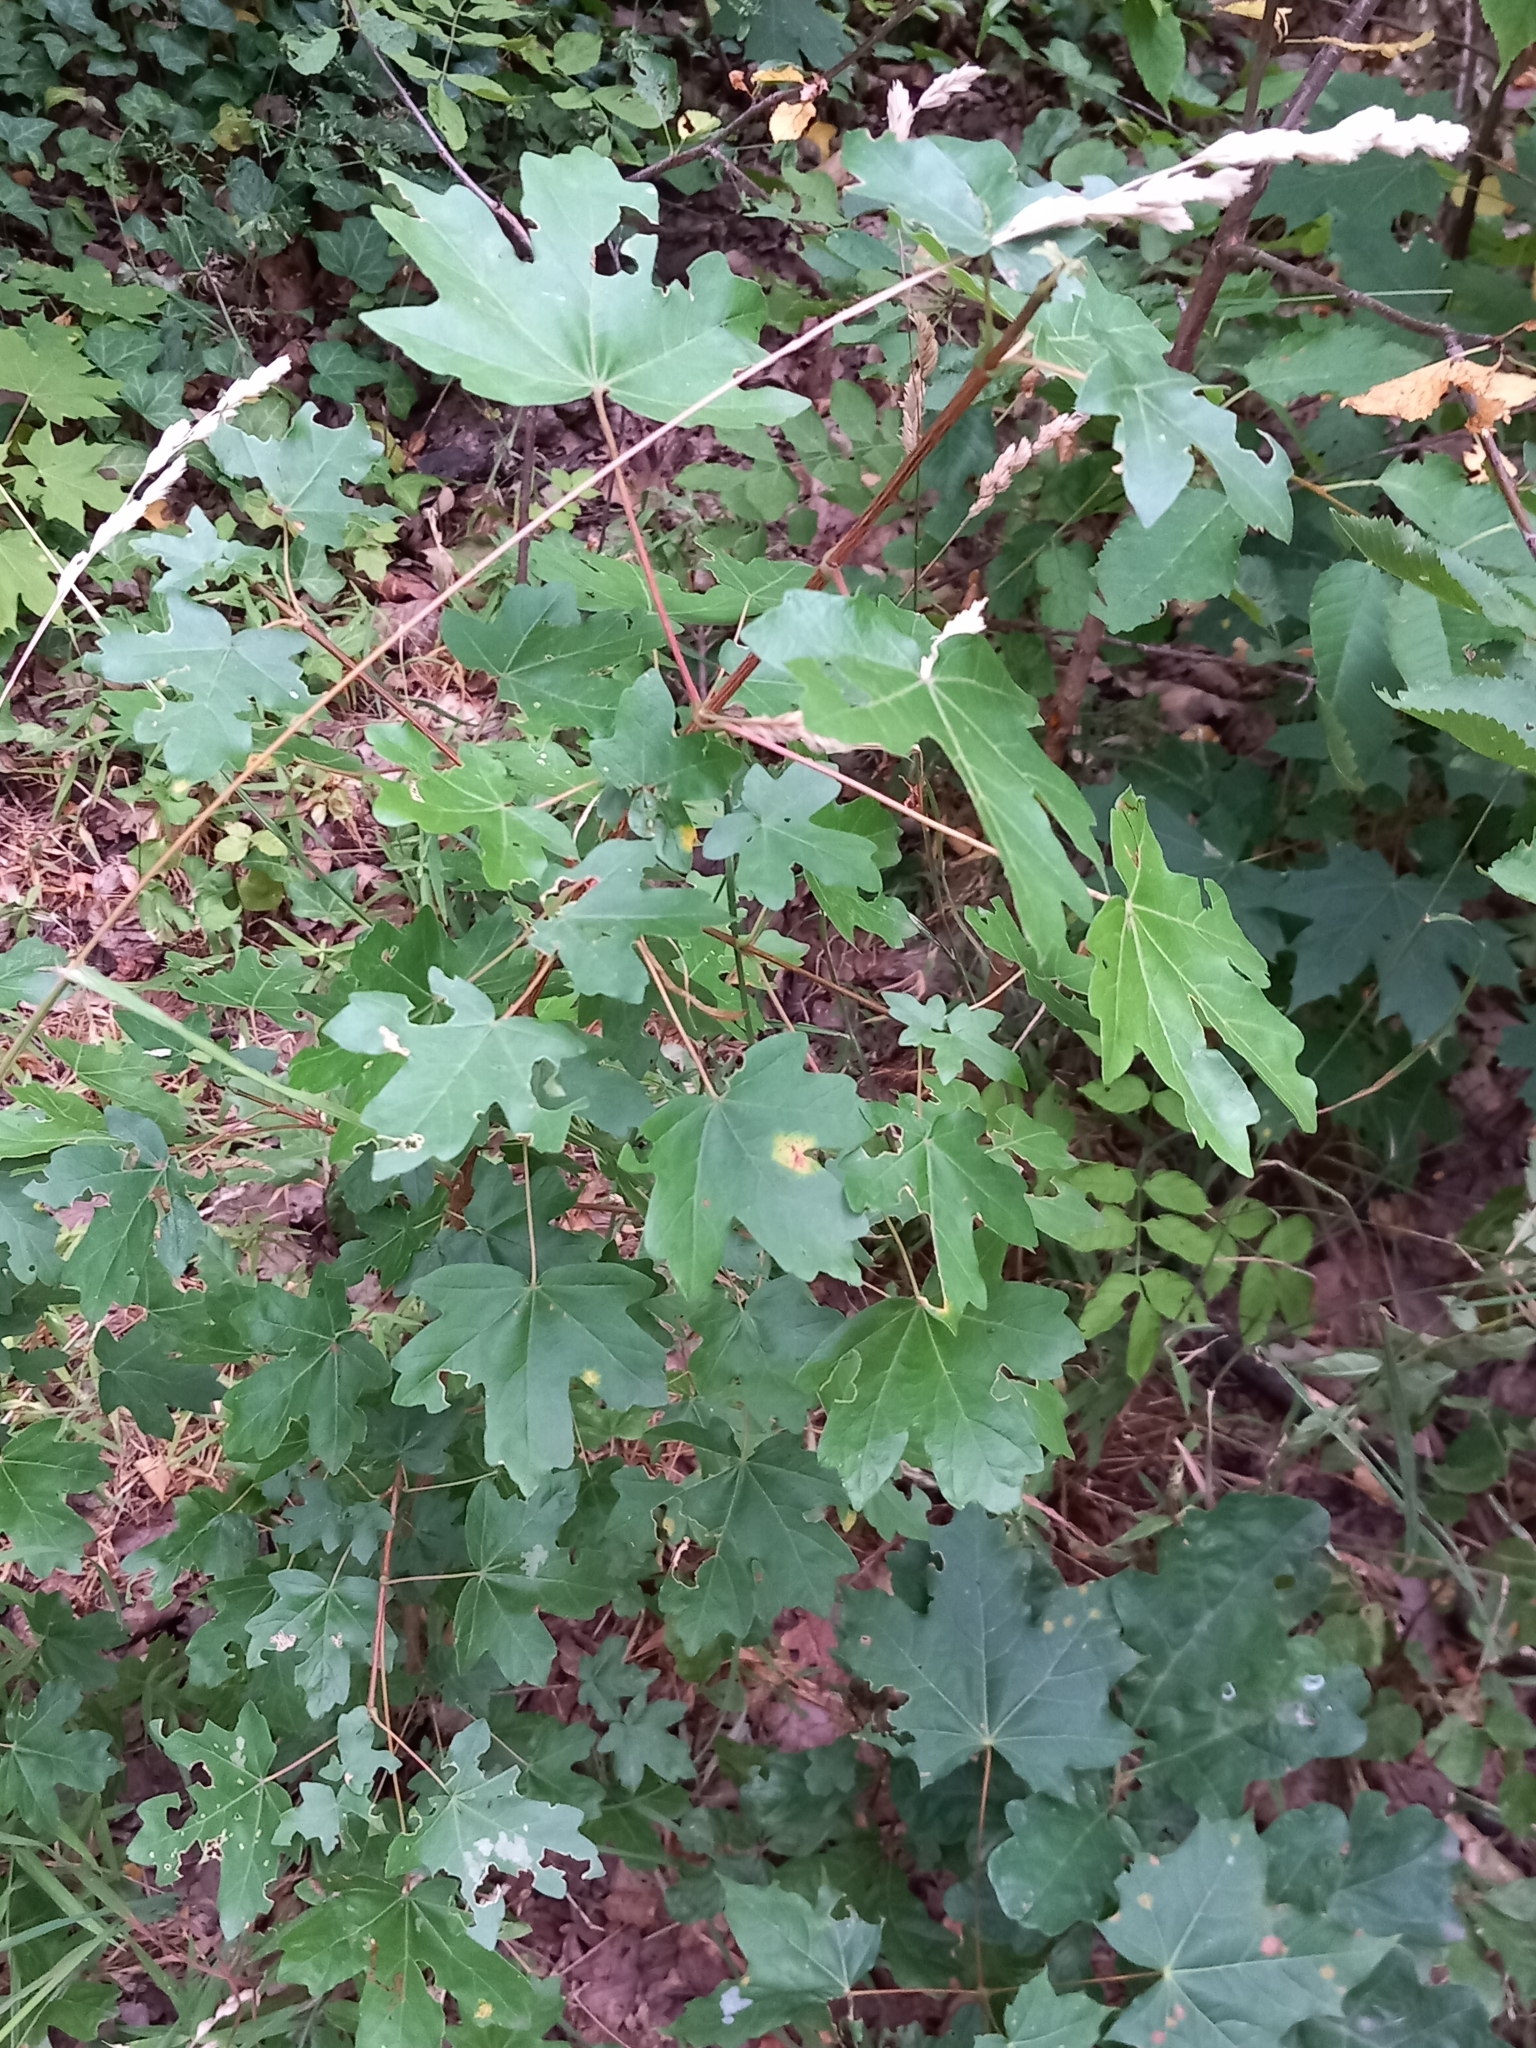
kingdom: Plantae
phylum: Tracheophyta
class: Magnoliopsida
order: Sapindales
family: Sapindaceae
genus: Acer
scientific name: Acer campestre
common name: Field maple
